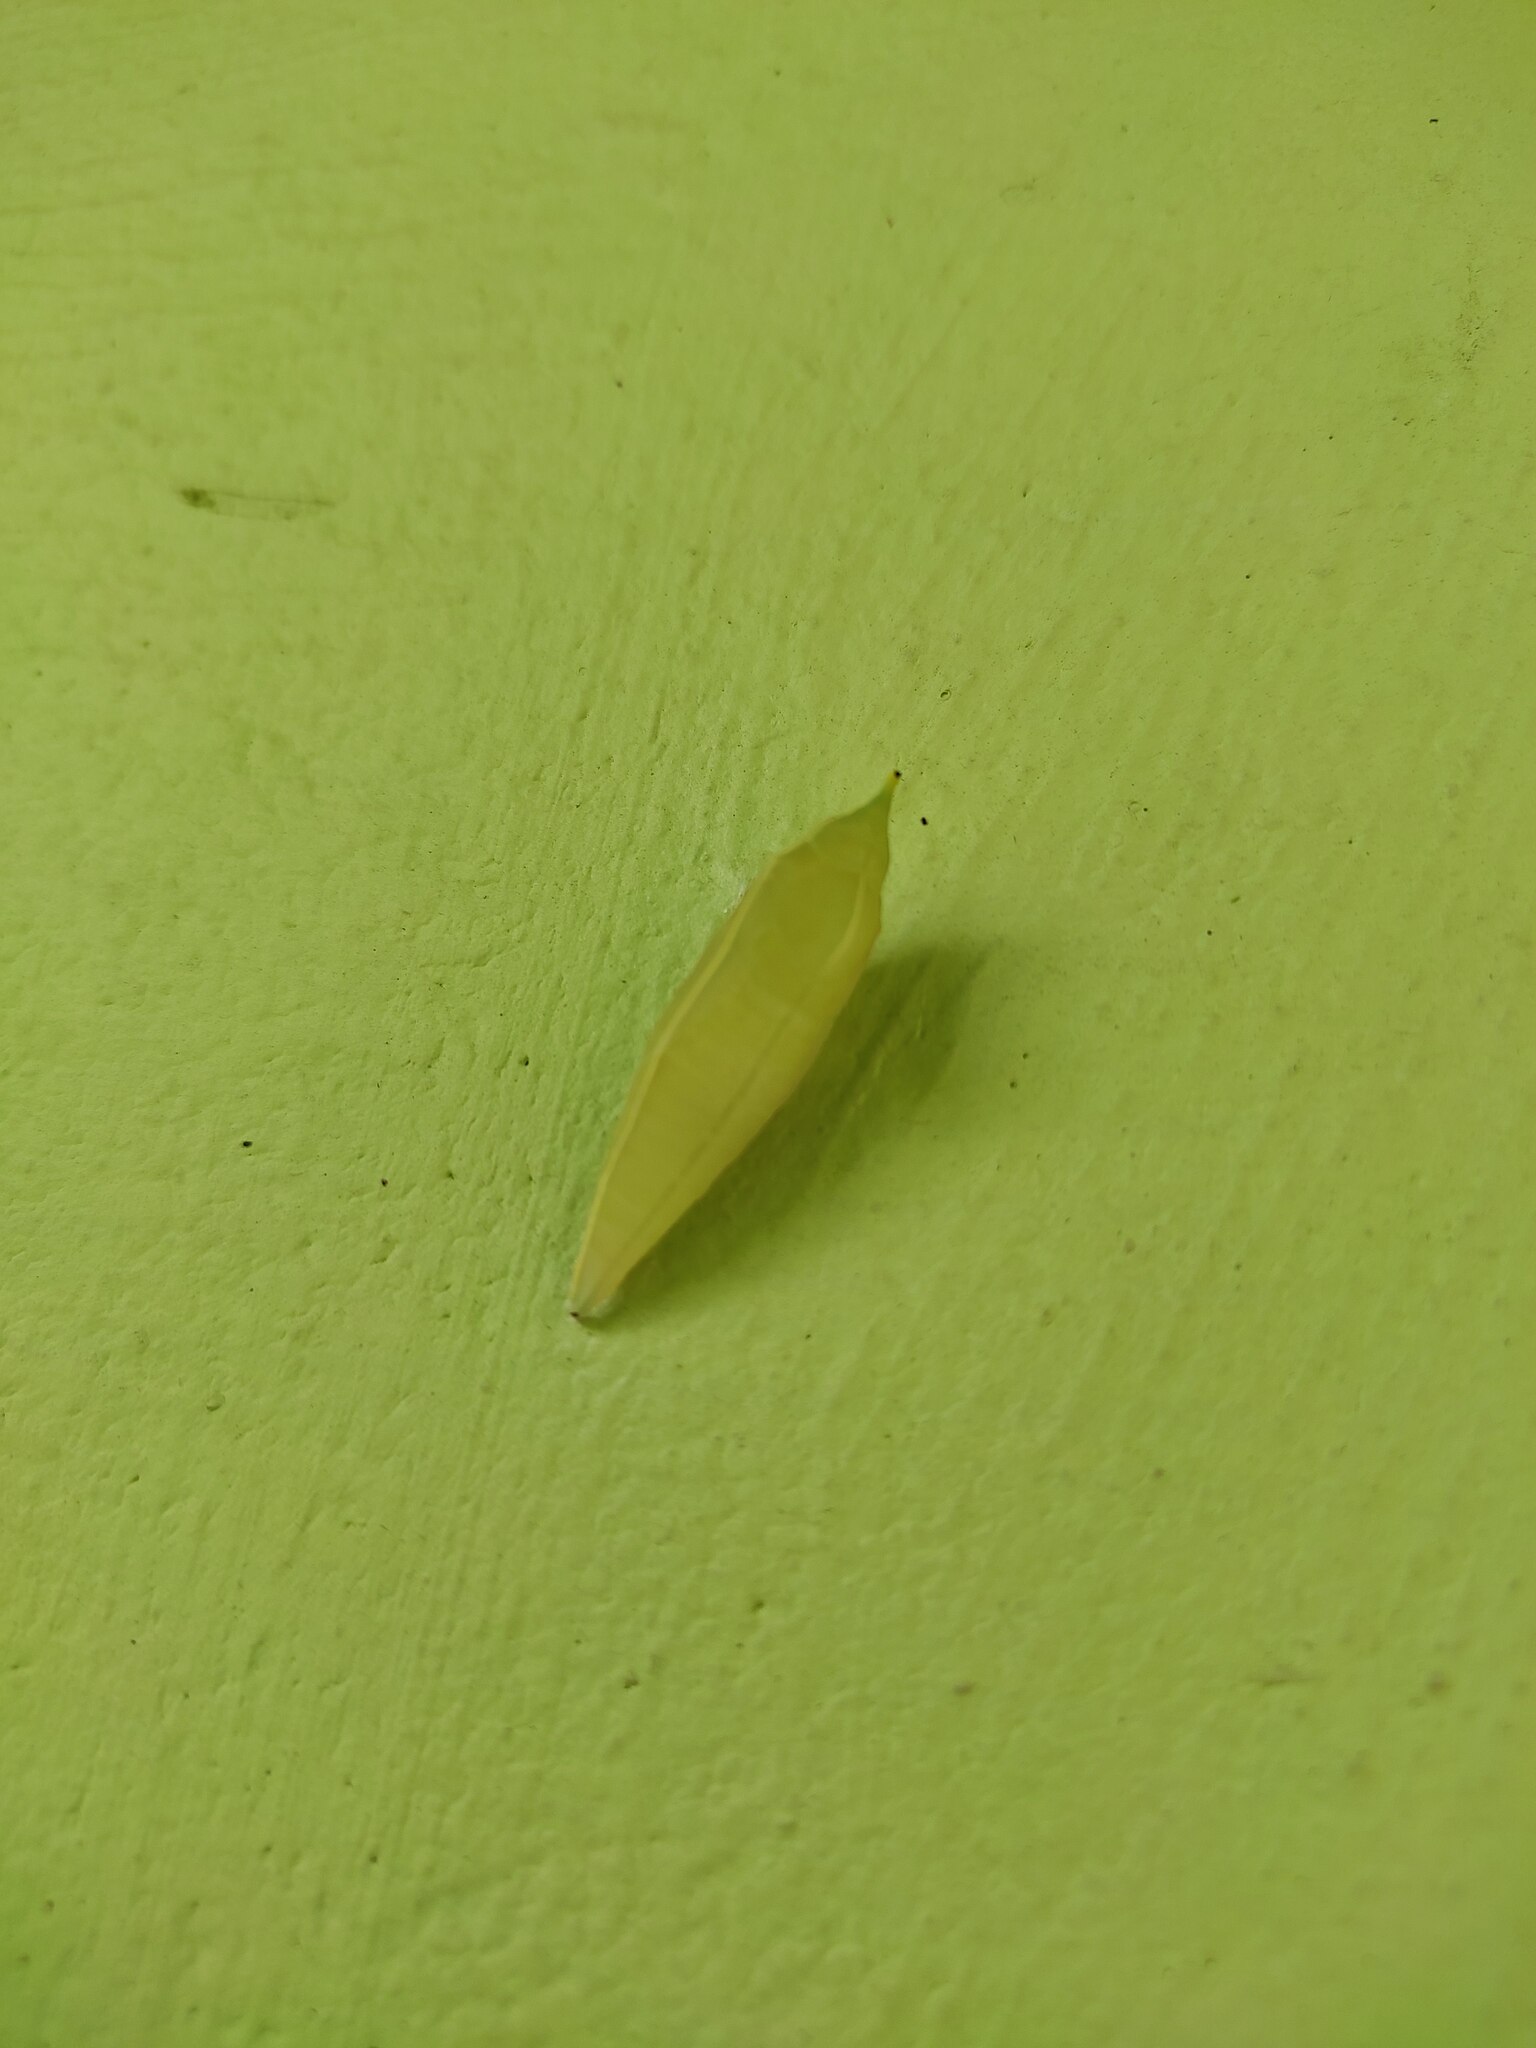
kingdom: Animalia
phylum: Arthropoda
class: Insecta
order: Lepidoptera
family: Pieridae
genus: Colotis
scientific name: Colotis amata
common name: Small salmon arab
